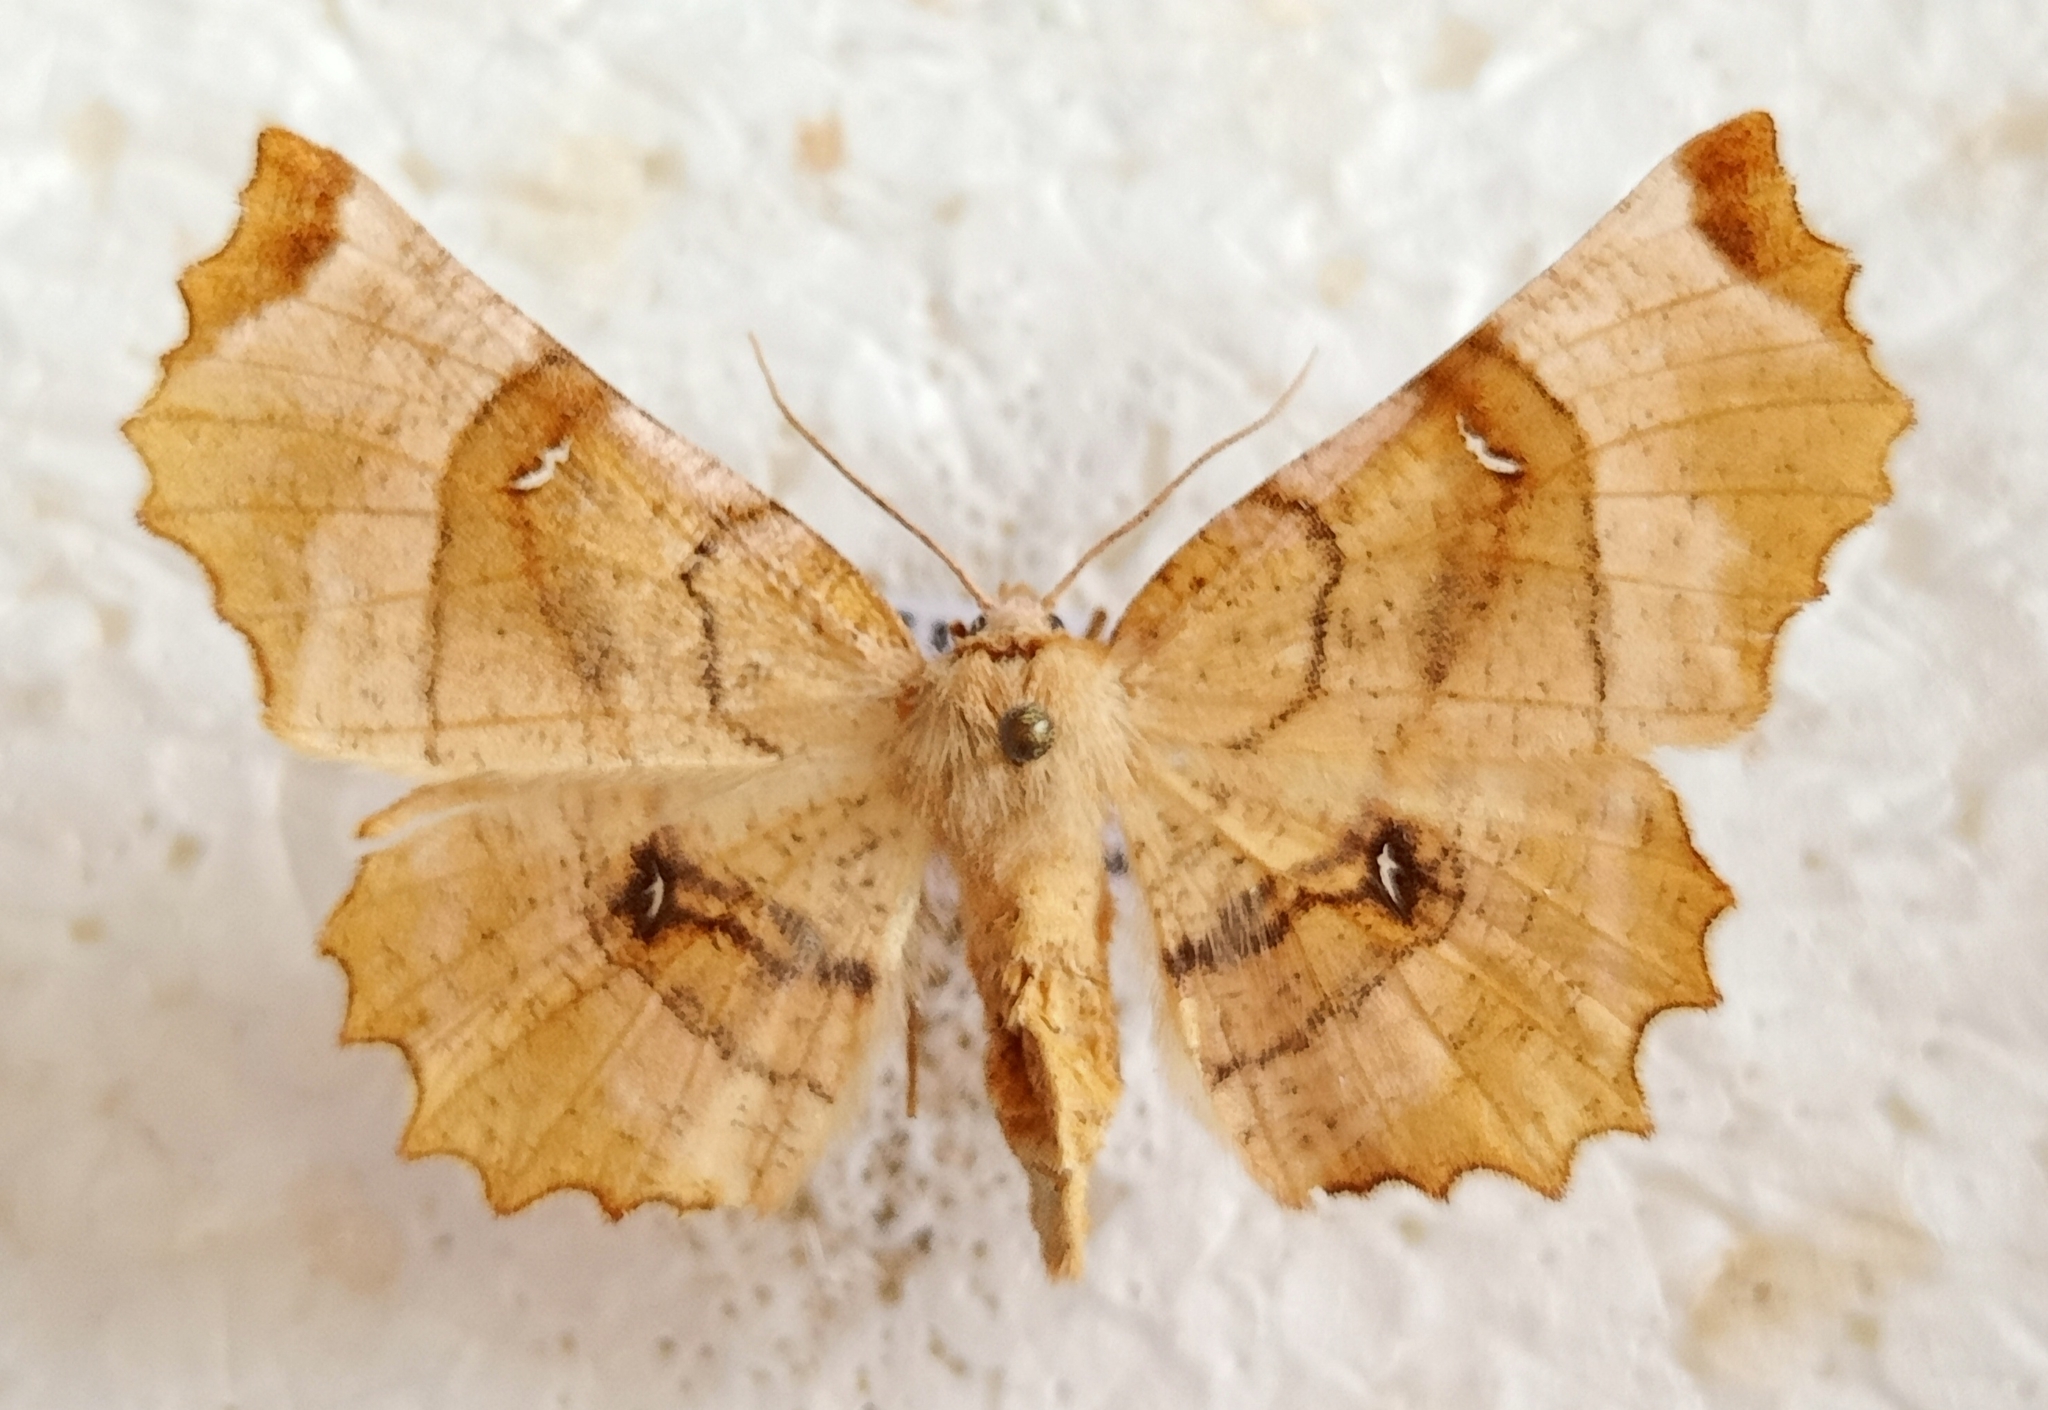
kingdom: Animalia
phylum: Arthropoda
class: Insecta
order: Lepidoptera
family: Geometridae
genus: Selenia
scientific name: Selenia lunularia
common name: Lunar thorn
